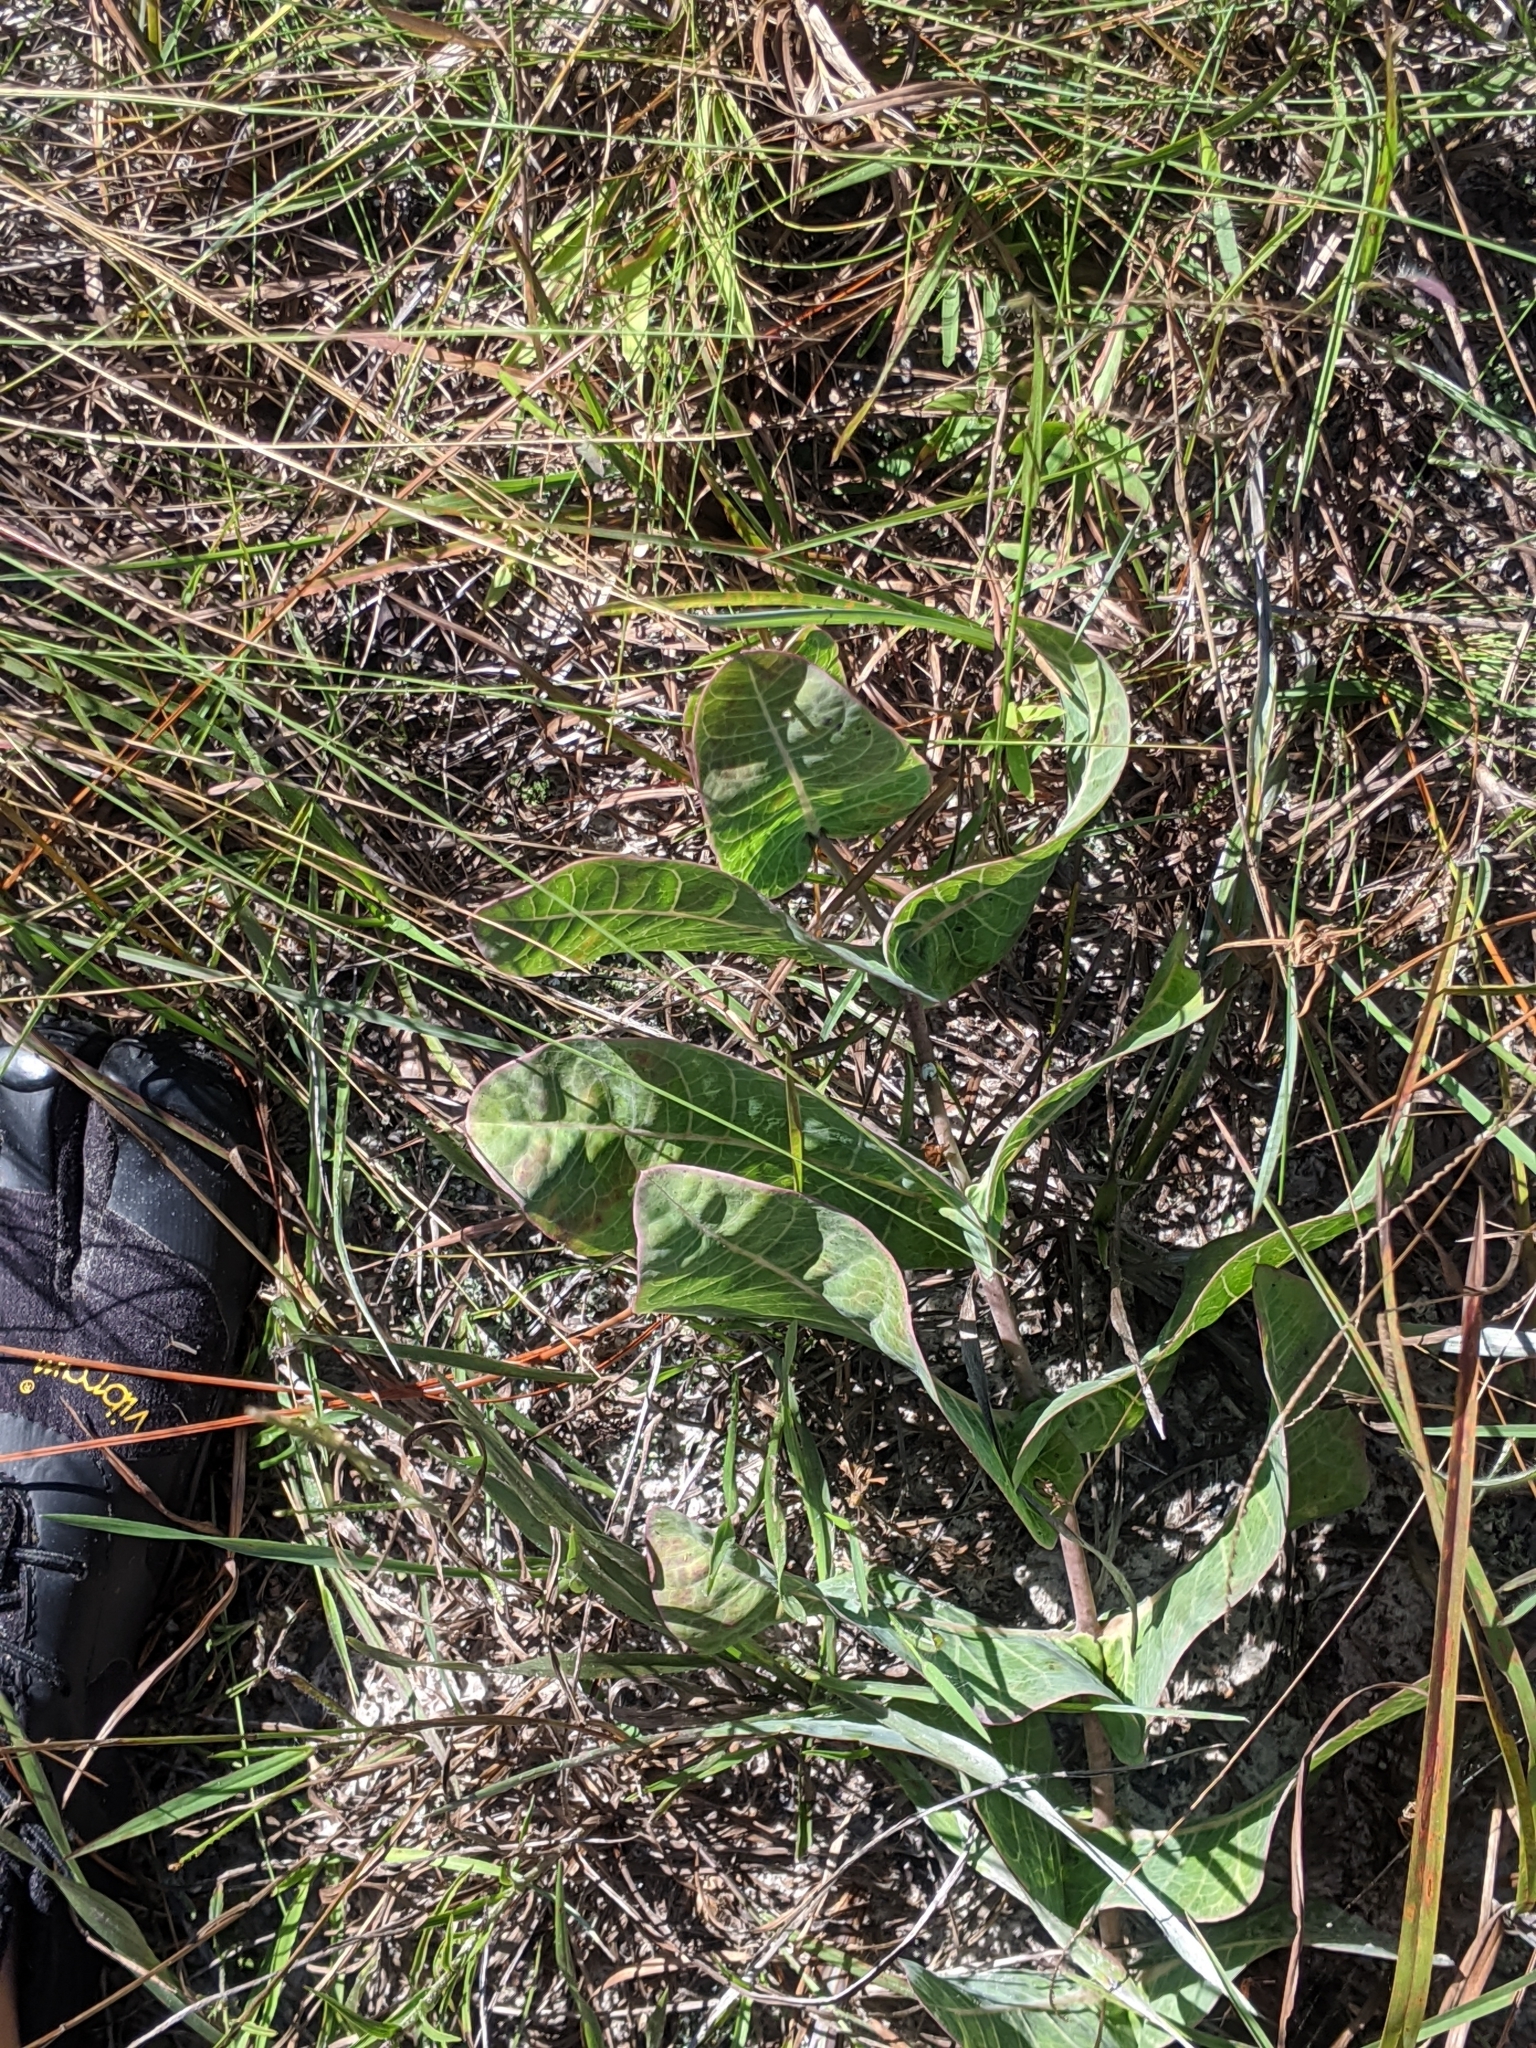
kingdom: Plantae
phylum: Tracheophyta
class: Magnoliopsida
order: Gentianales
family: Apocynaceae
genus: Asclepias
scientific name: Asclepias humistrata
